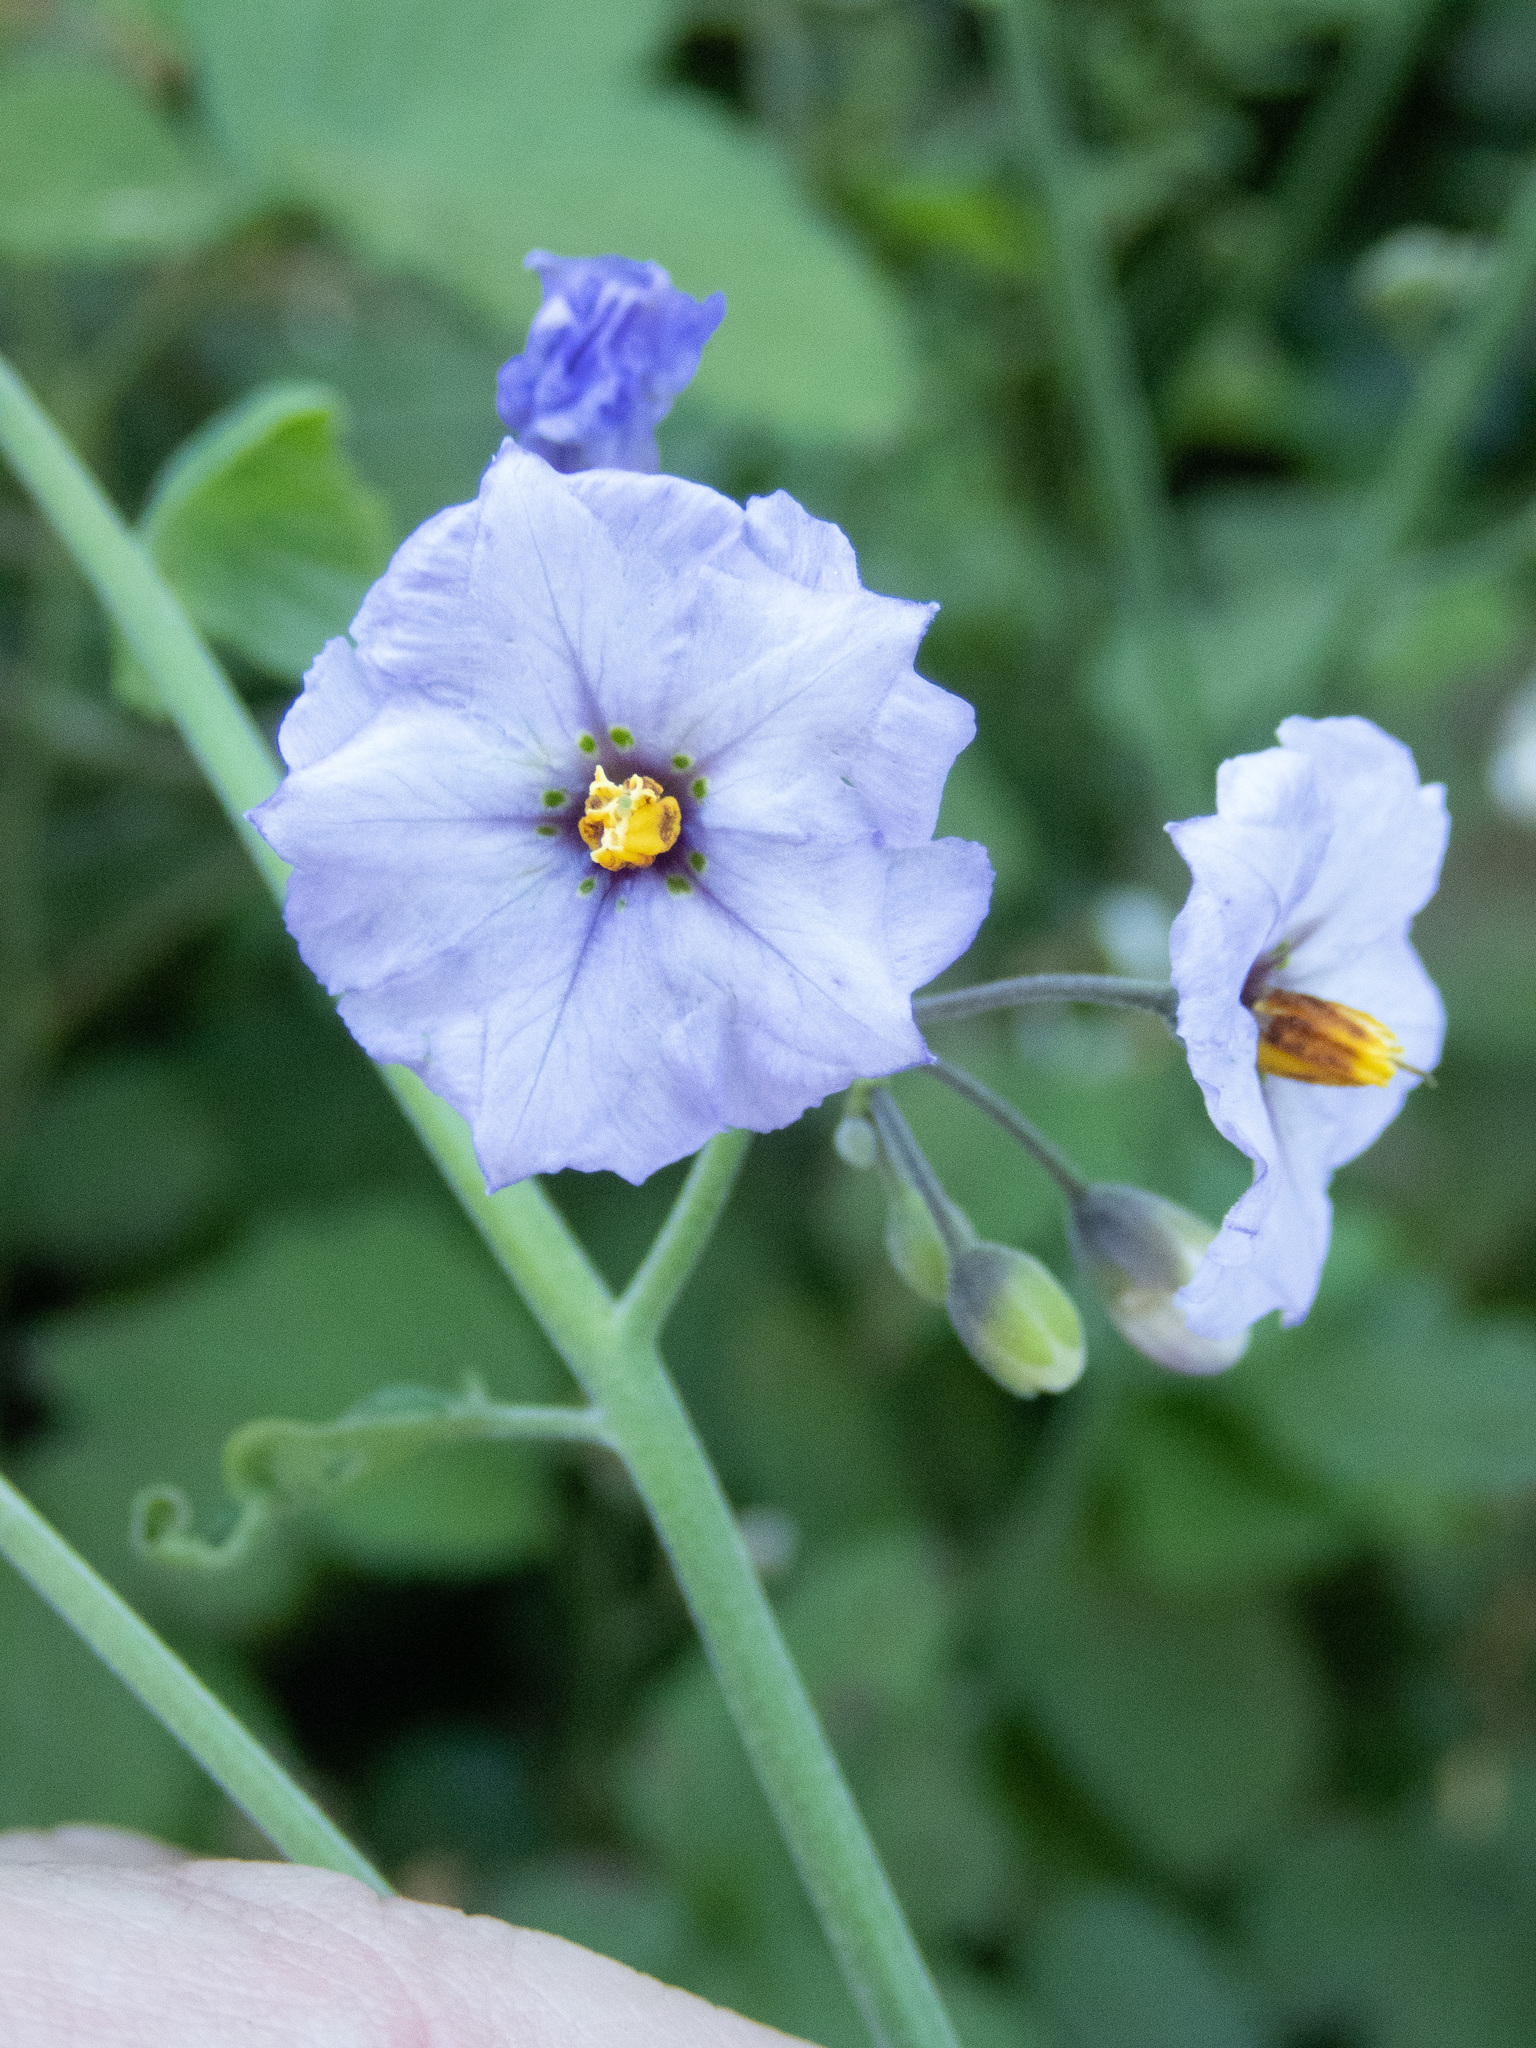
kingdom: Plantae
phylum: Tracheophyta
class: Magnoliopsida
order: Solanales
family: Solanaceae
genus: Solanum
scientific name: Solanum umbelliferum
